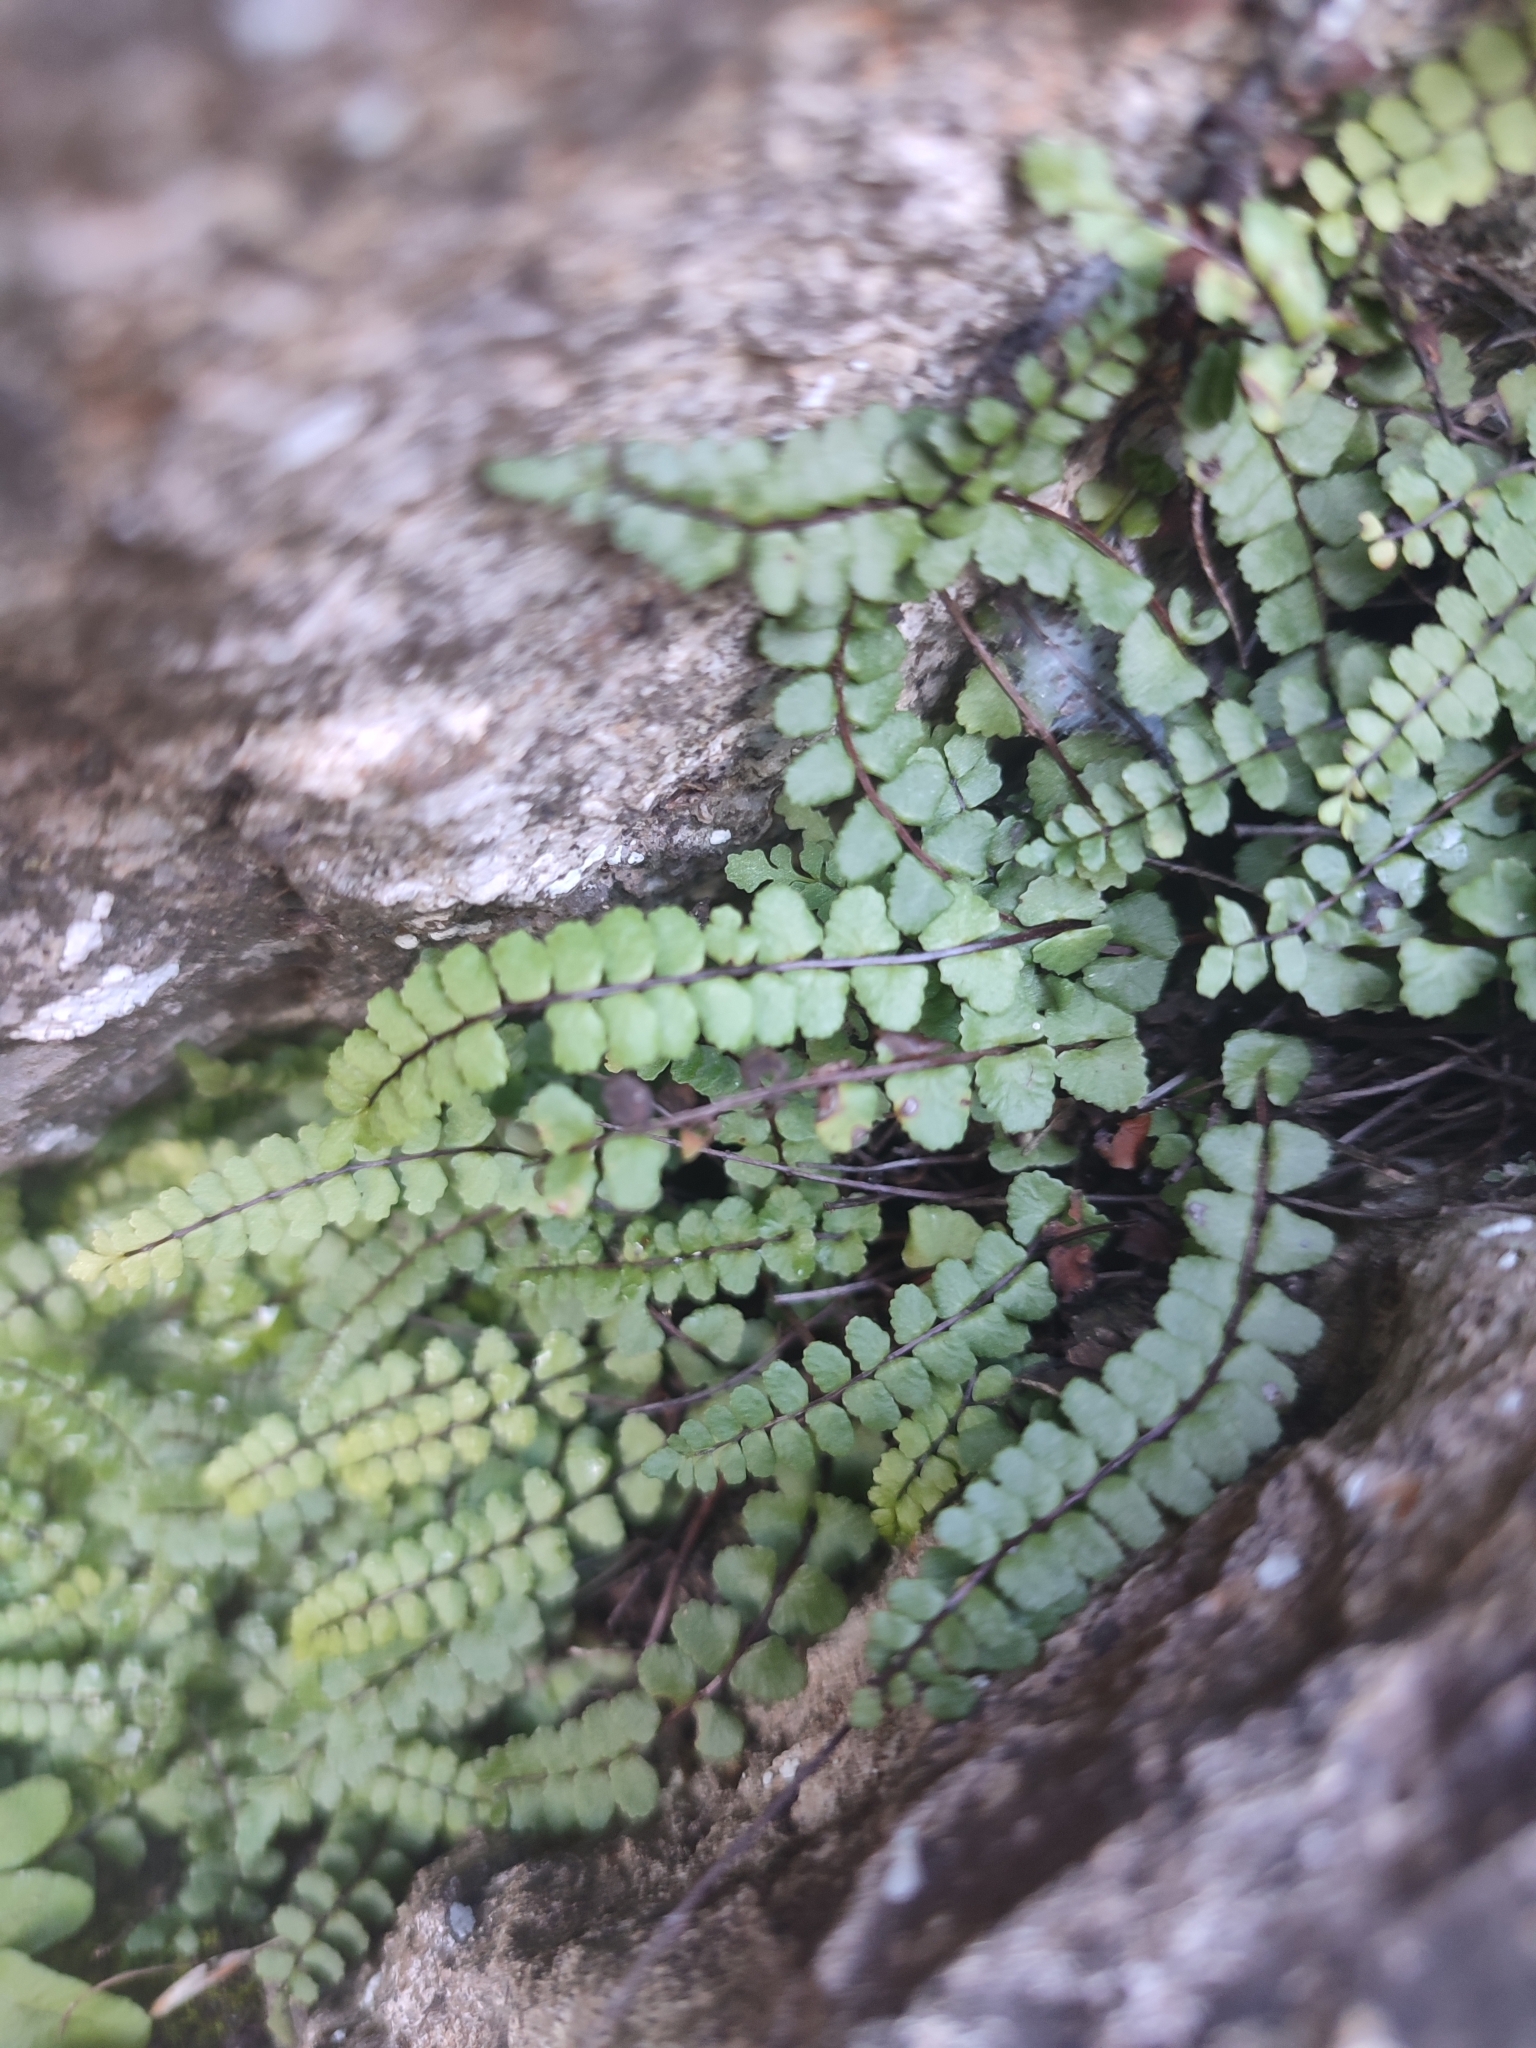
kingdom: Plantae
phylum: Tracheophyta
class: Polypodiopsida
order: Polypodiales
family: Aspleniaceae
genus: Asplenium
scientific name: Asplenium trichomanes
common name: Maidenhair spleenwort
